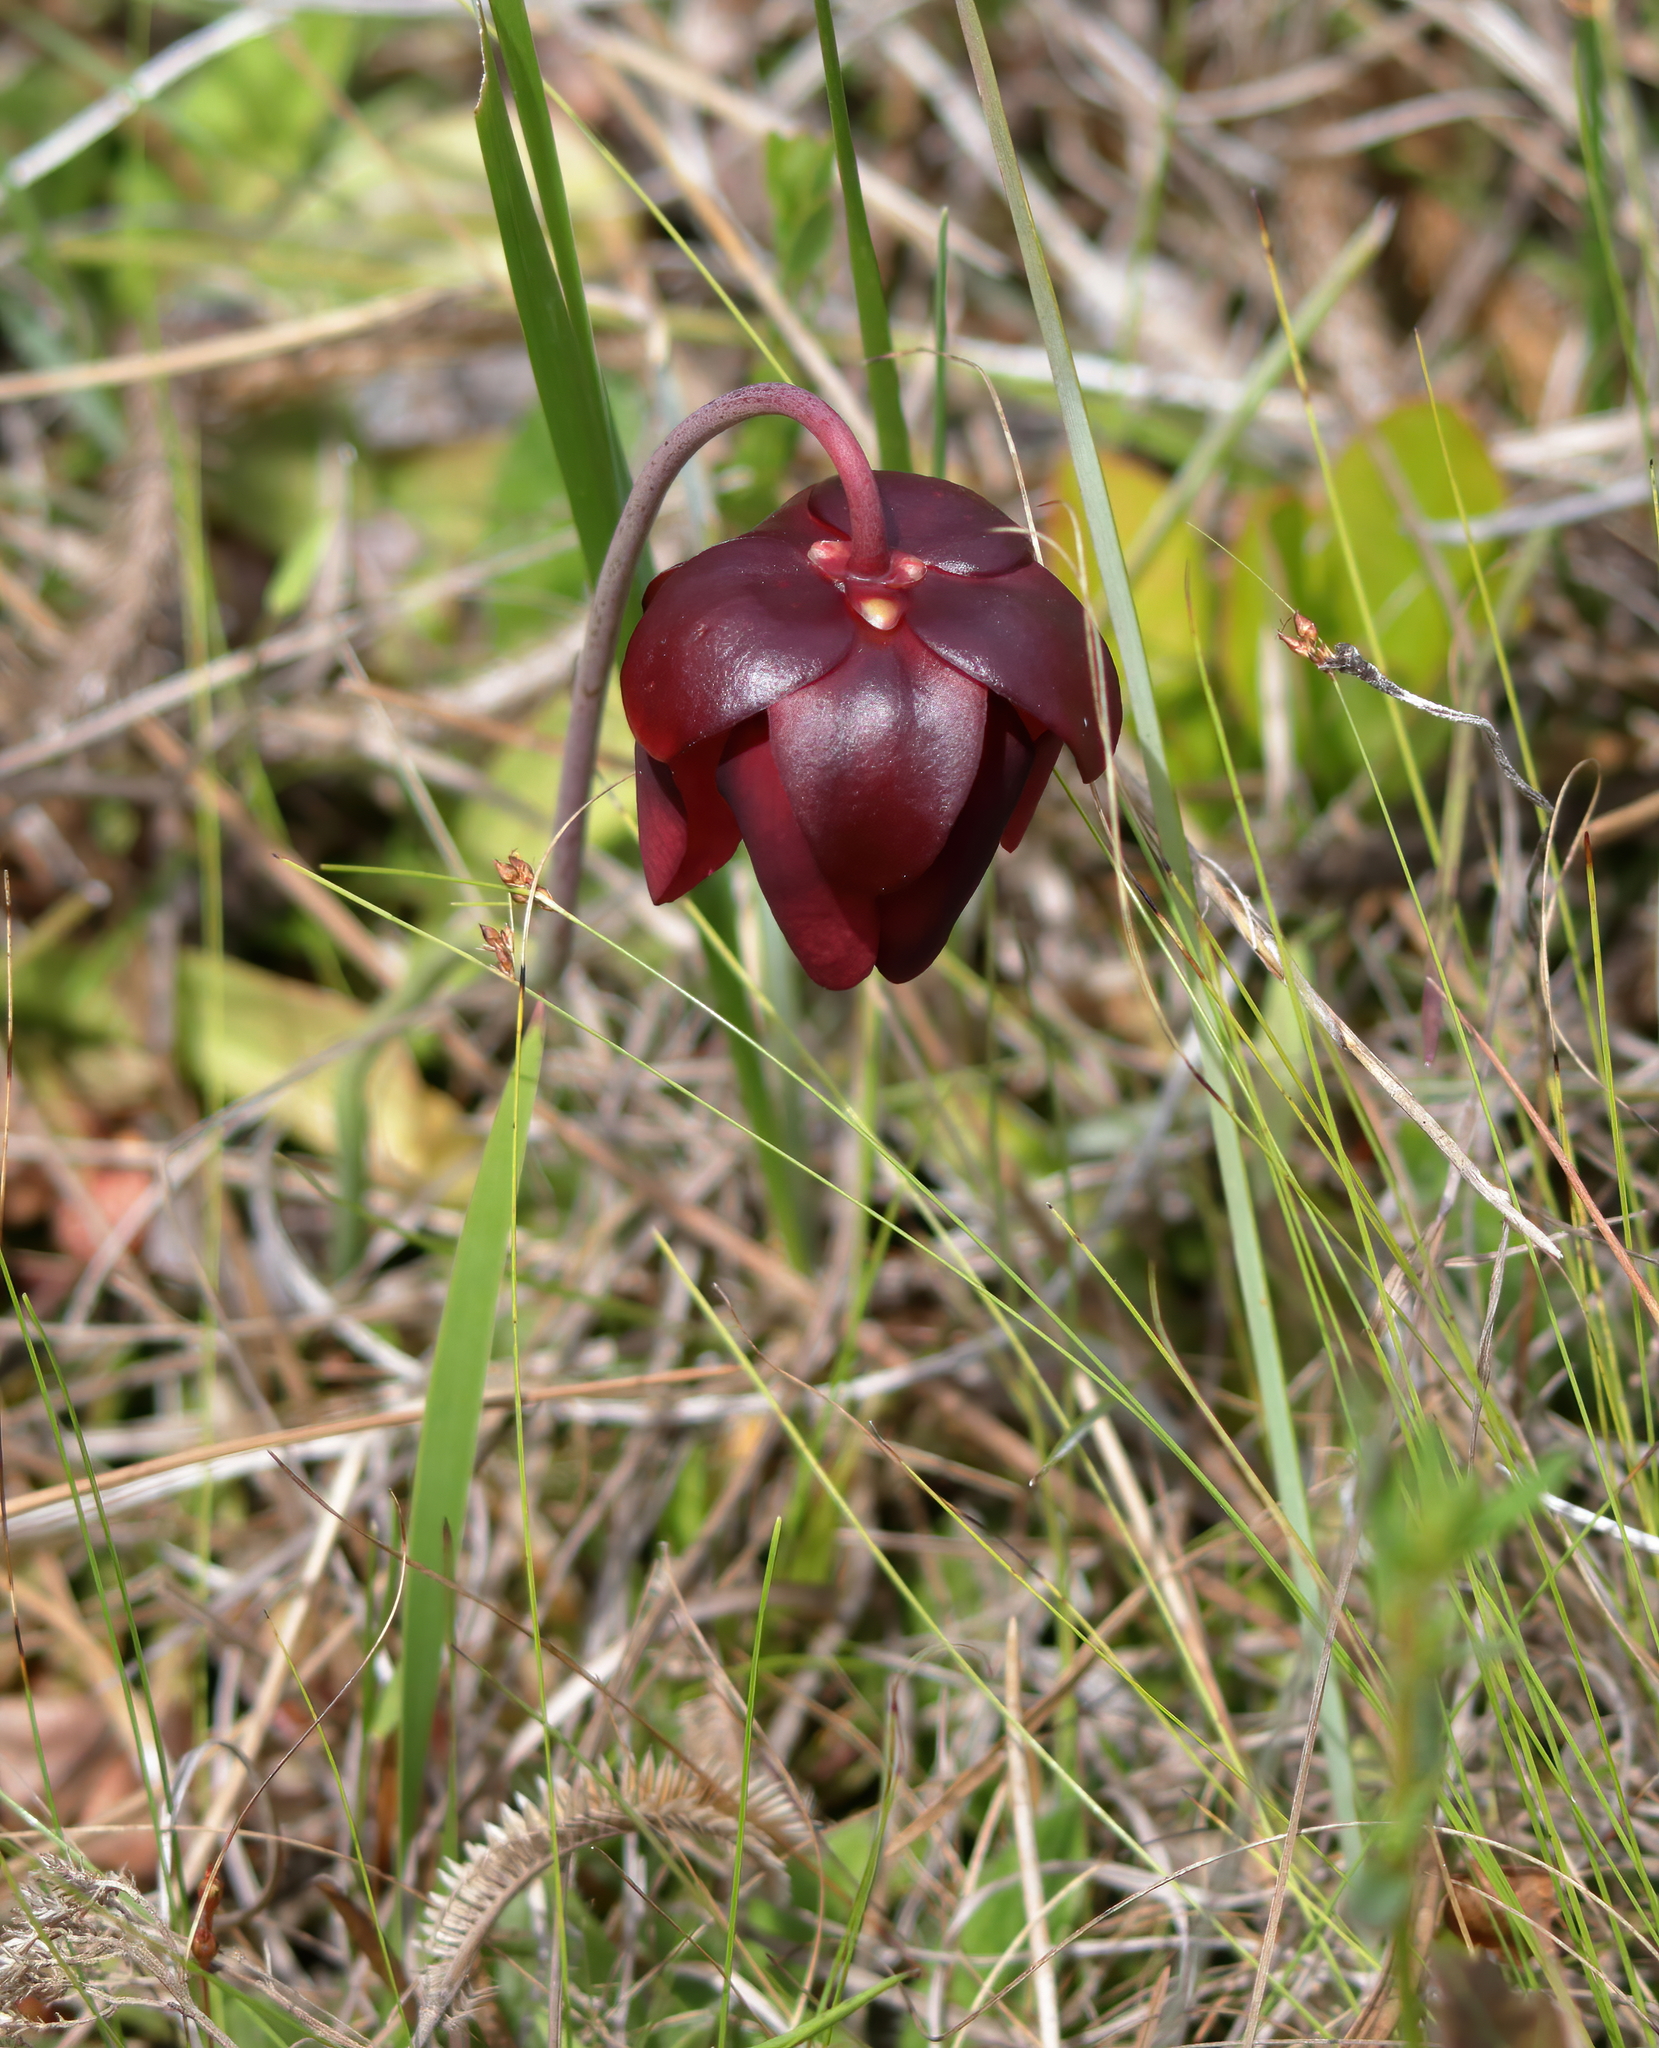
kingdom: Plantae
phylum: Tracheophyta
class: Magnoliopsida
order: Ericales
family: Sarraceniaceae
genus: Sarracenia
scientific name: Sarracenia psittacina
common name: Parrot pitcherplant
